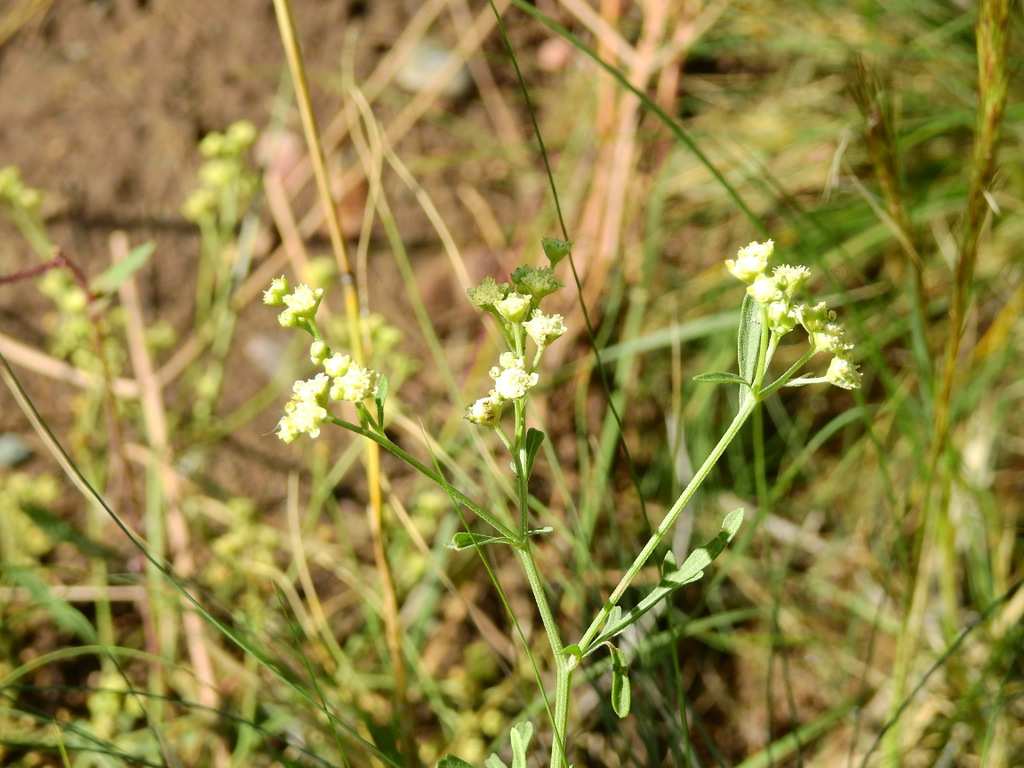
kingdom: Plantae
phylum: Tracheophyta
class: Magnoliopsida
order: Asterales
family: Asteraceae
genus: Parthenium
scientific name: Parthenium hysterophorus
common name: Santa maria feverfew
